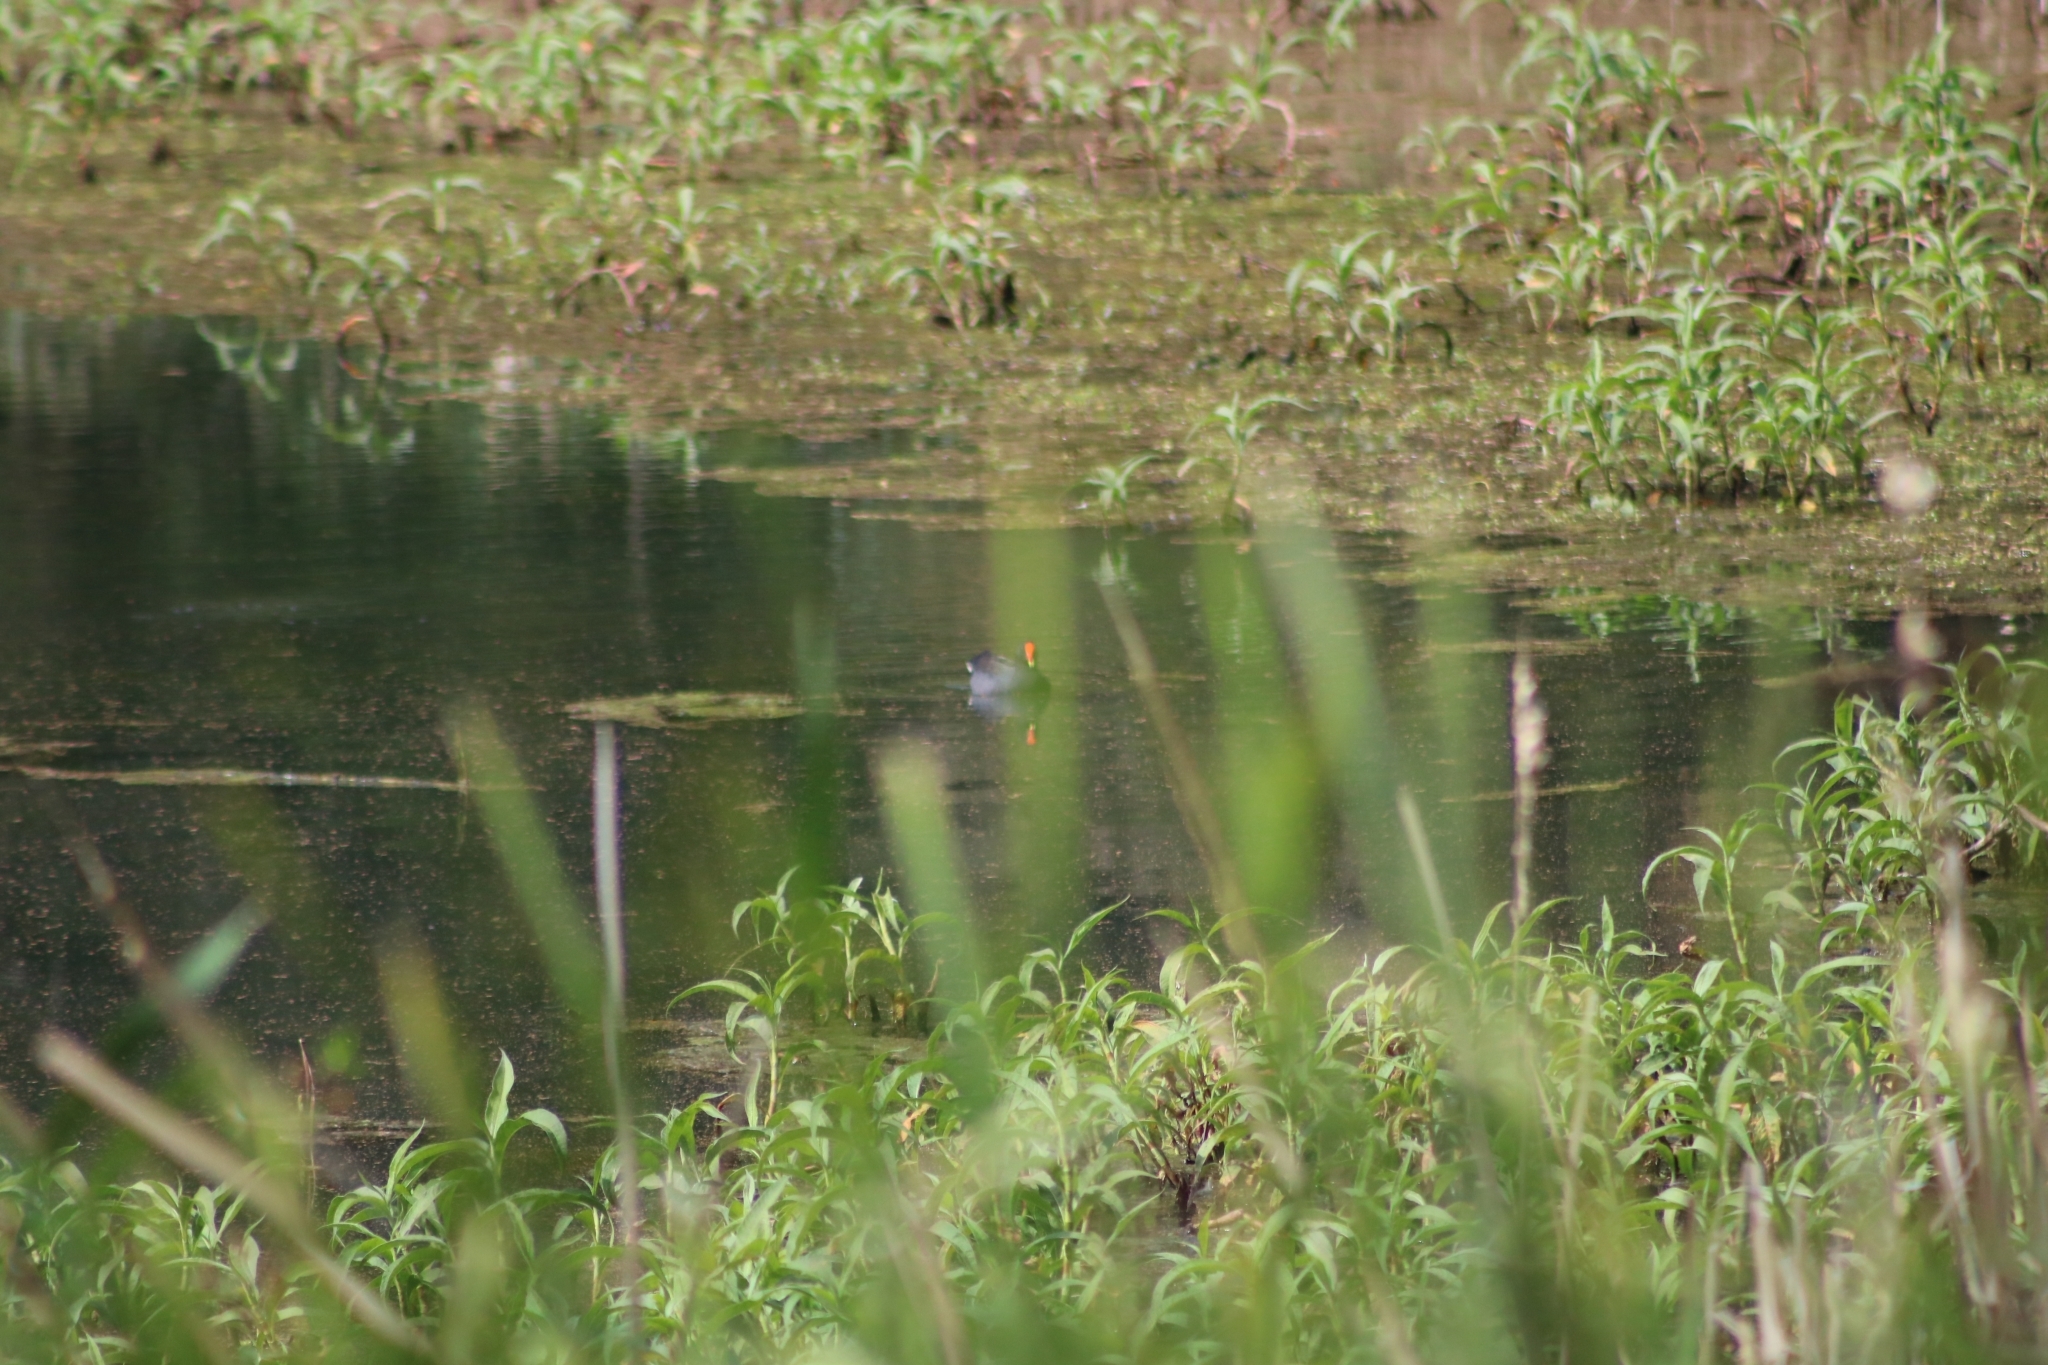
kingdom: Animalia
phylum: Chordata
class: Aves
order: Gruiformes
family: Rallidae
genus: Gallinula
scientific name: Gallinula tenebrosa
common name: Dusky moorhen
